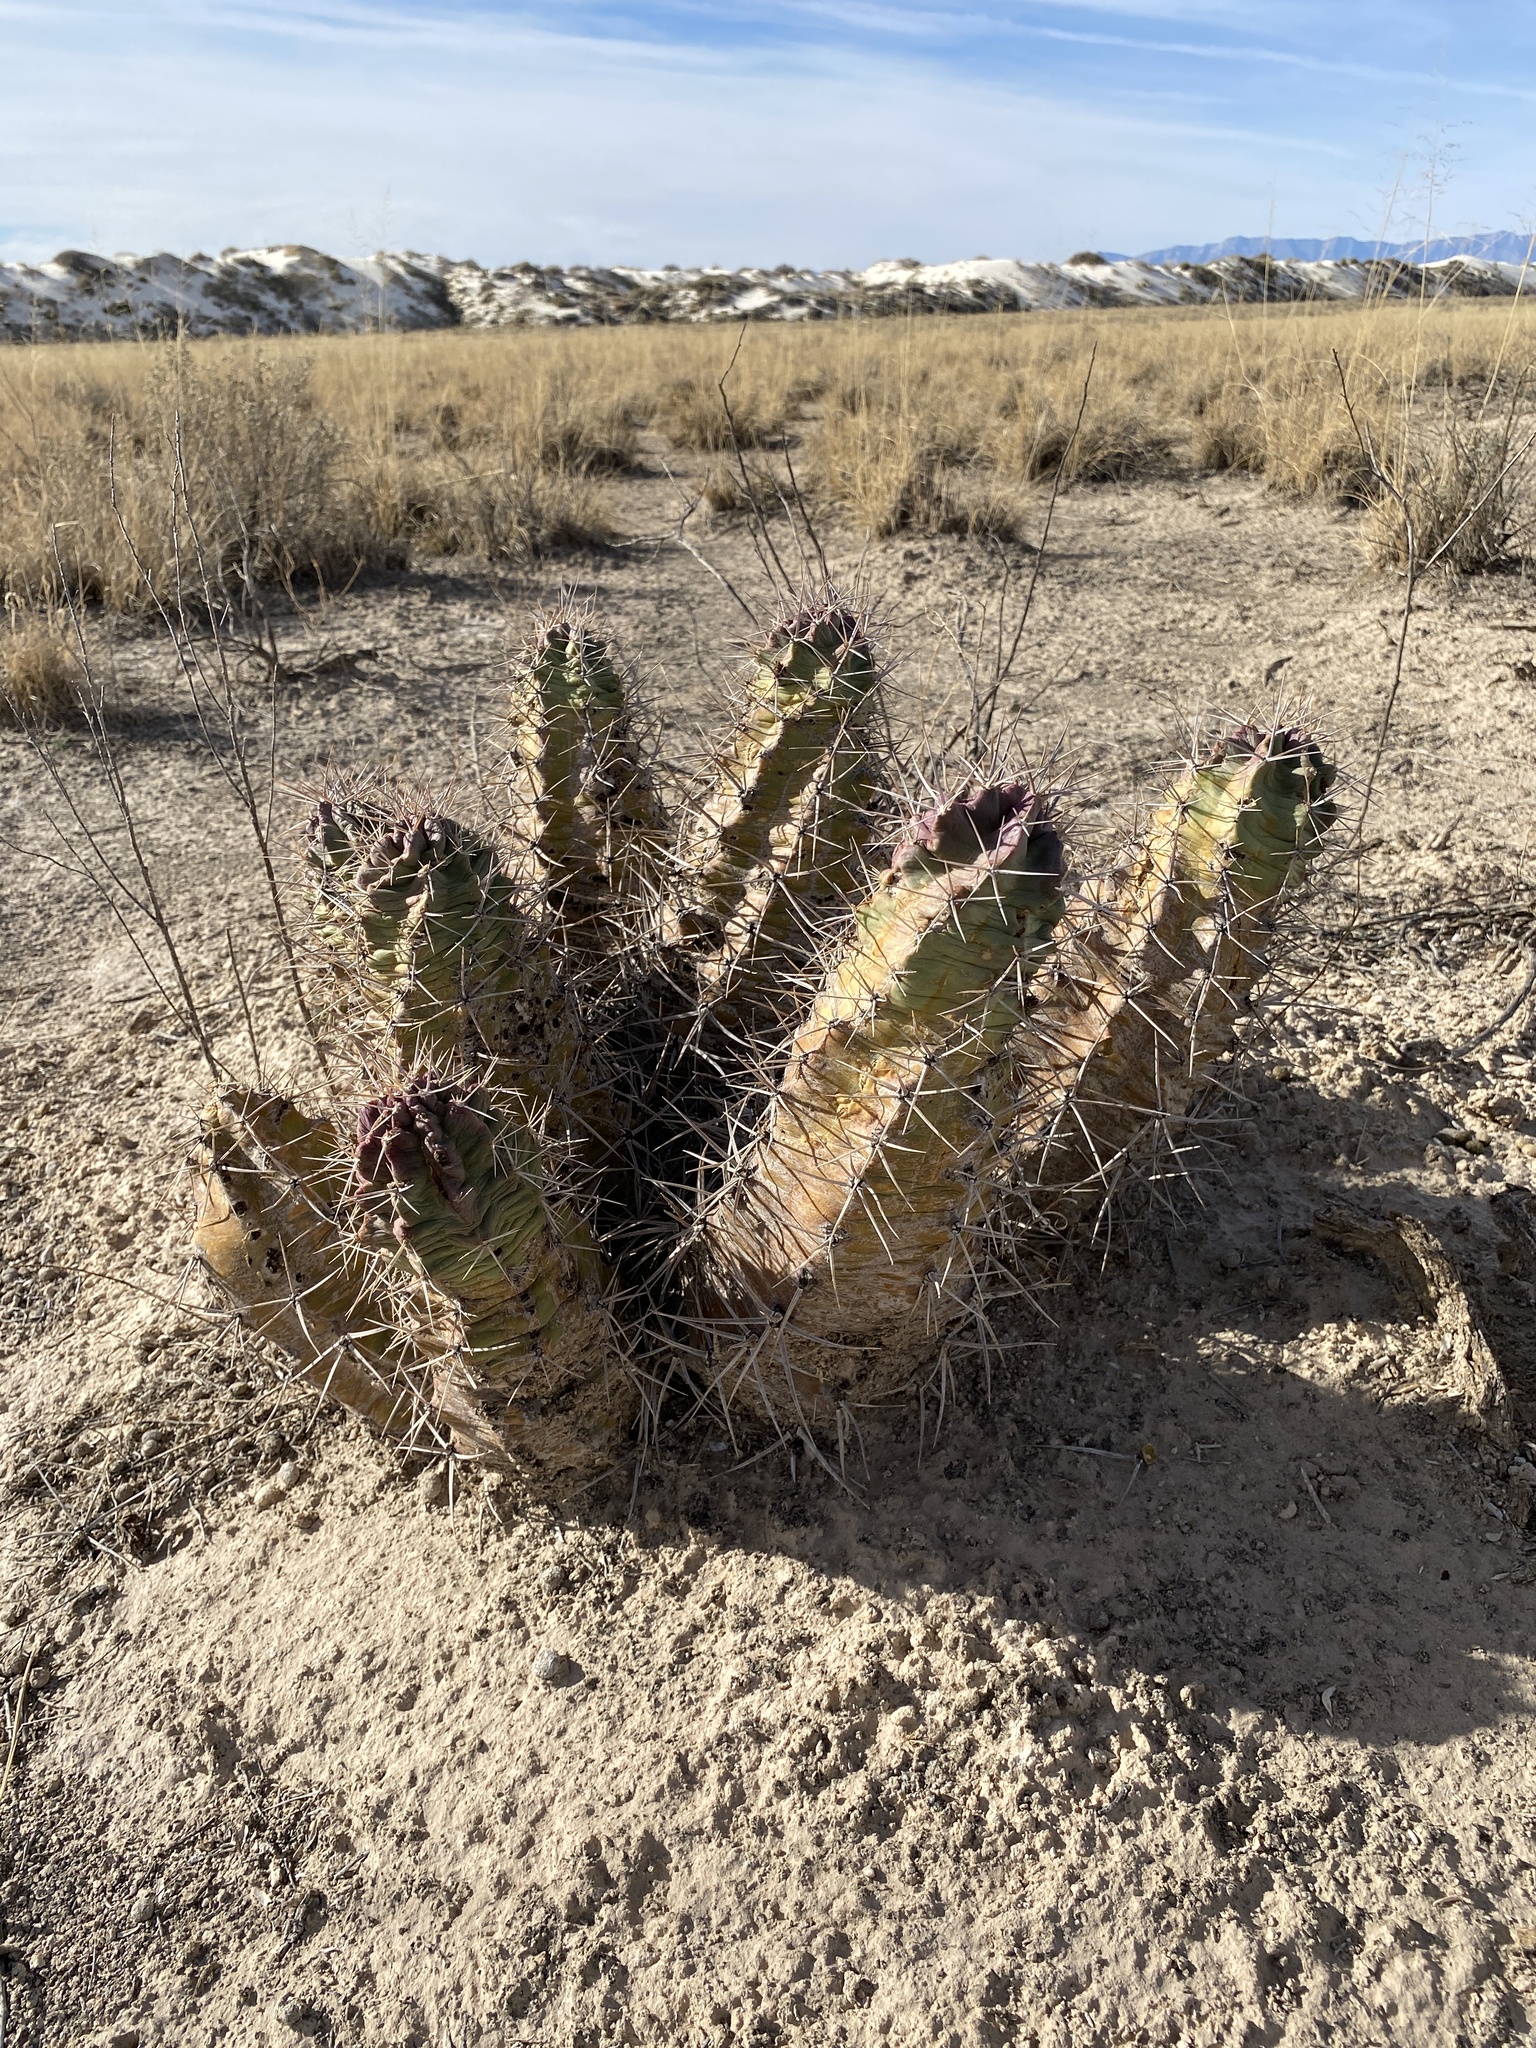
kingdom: Plantae
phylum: Tracheophyta
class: Magnoliopsida
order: Caryophyllales
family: Cactaceae
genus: Echinocereus
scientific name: Echinocereus triglochidiatus
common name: Claretcup hedgehog
